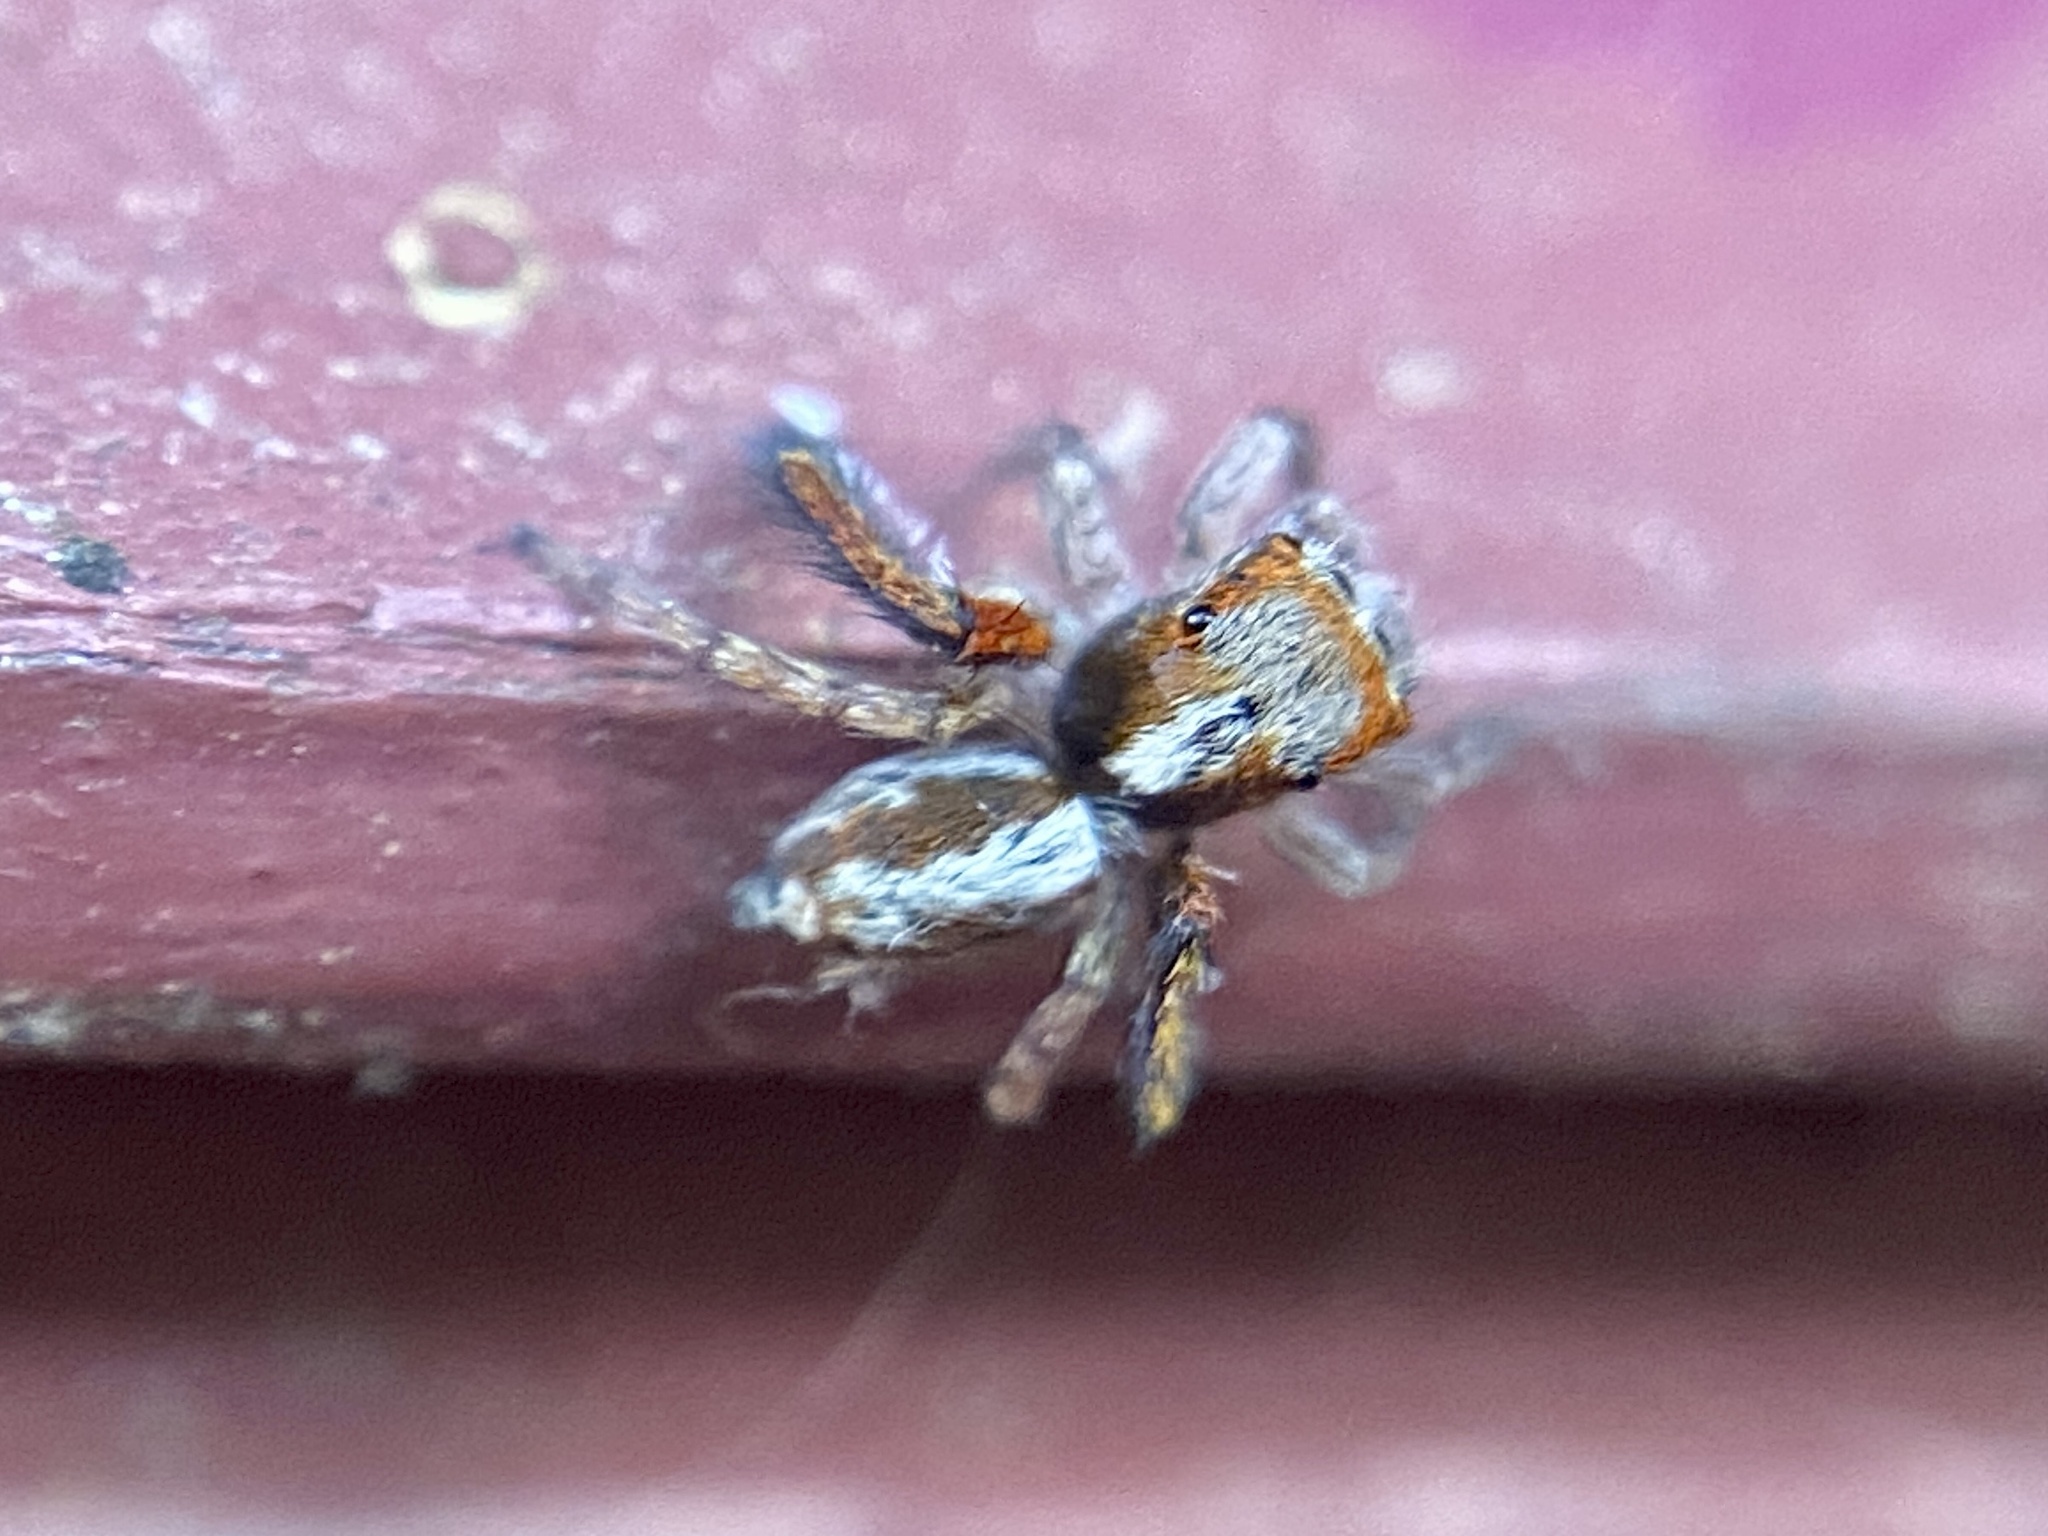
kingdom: Animalia
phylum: Arthropoda
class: Arachnida
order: Araneae
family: Salticidae
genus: Saitis
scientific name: Saitis barbipes
